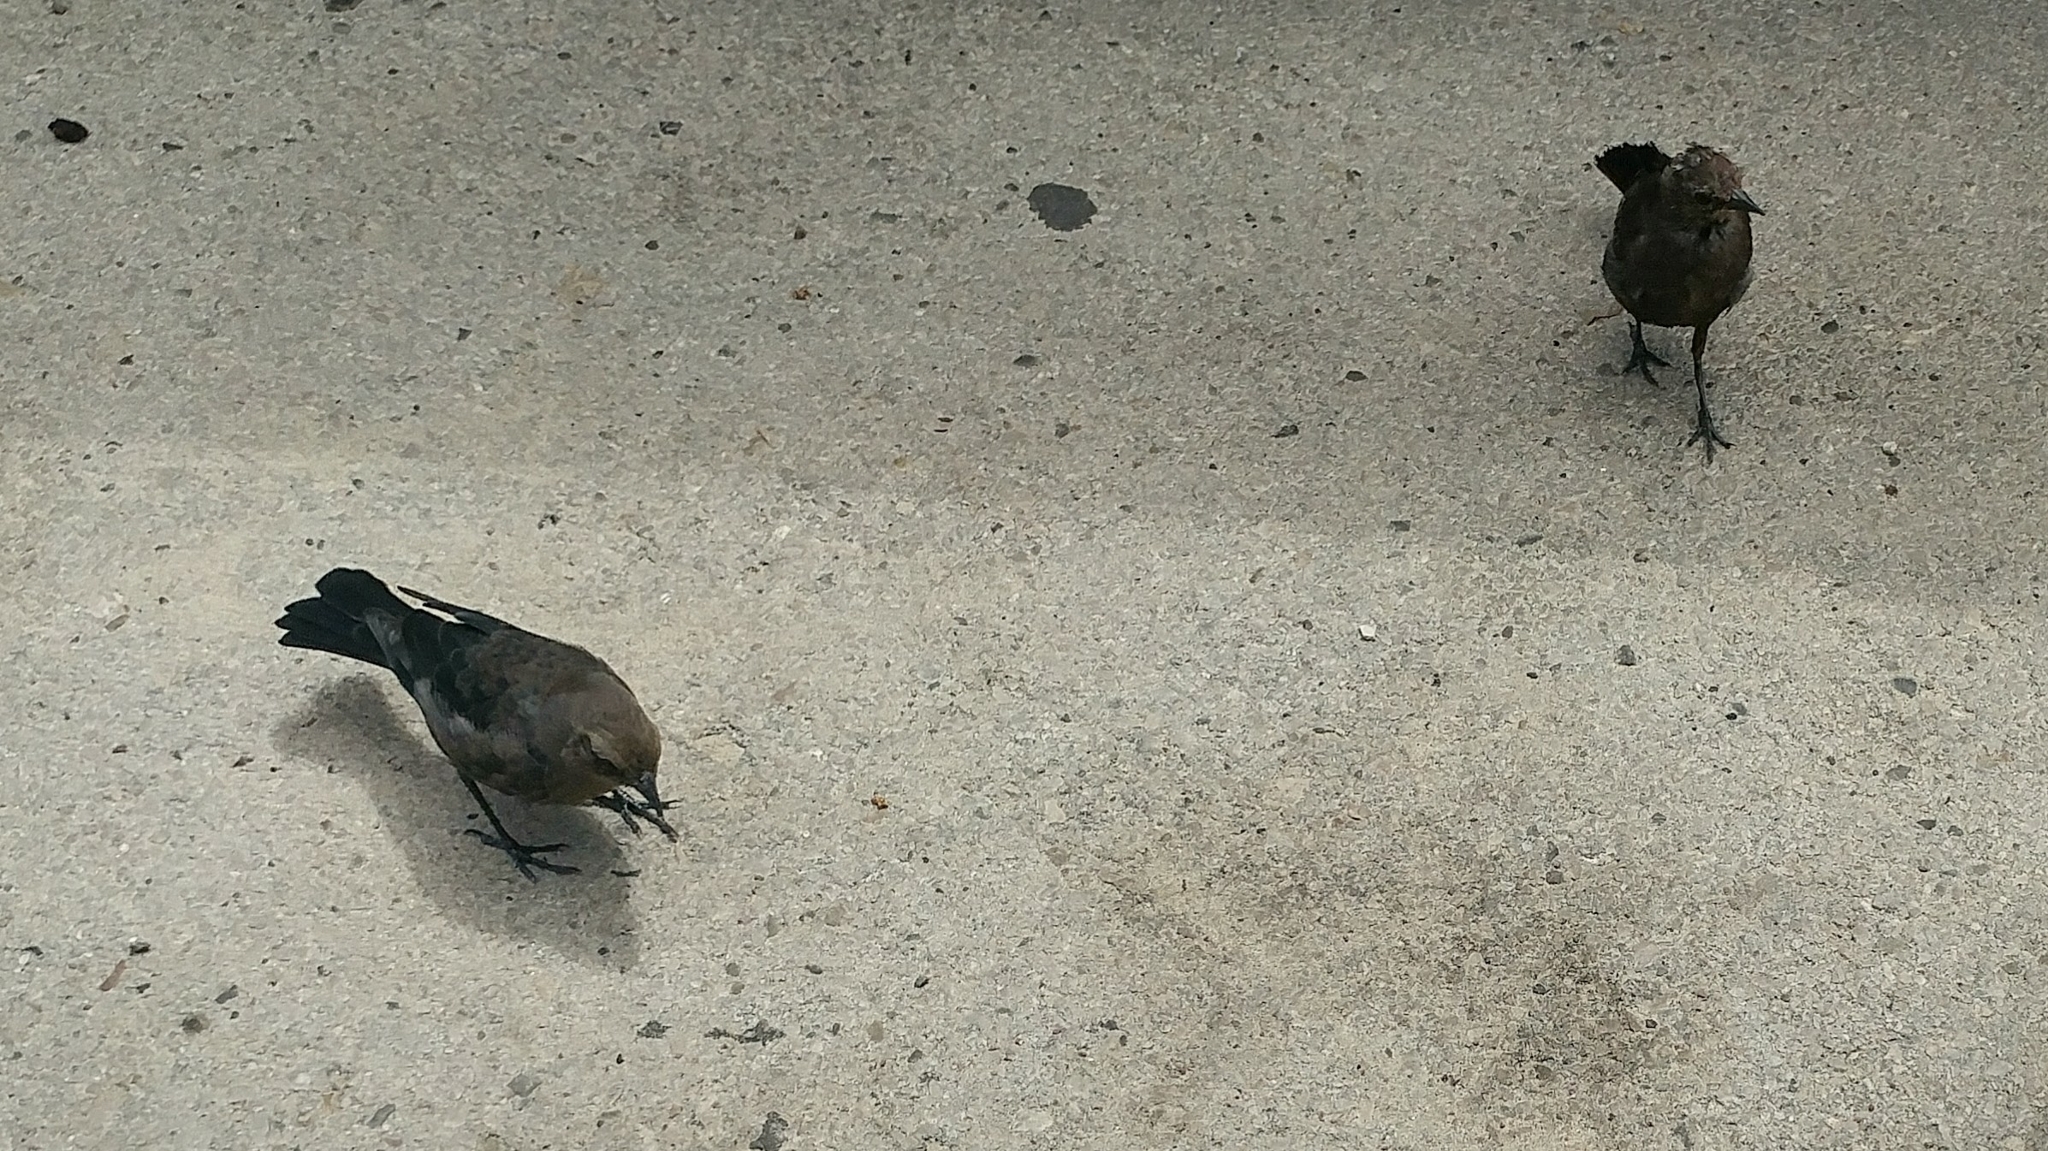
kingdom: Animalia
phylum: Chordata
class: Aves
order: Passeriformes
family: Icteridae
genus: Euphagus
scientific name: Euphagus cyanocephalus
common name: Brewer's blackbird
